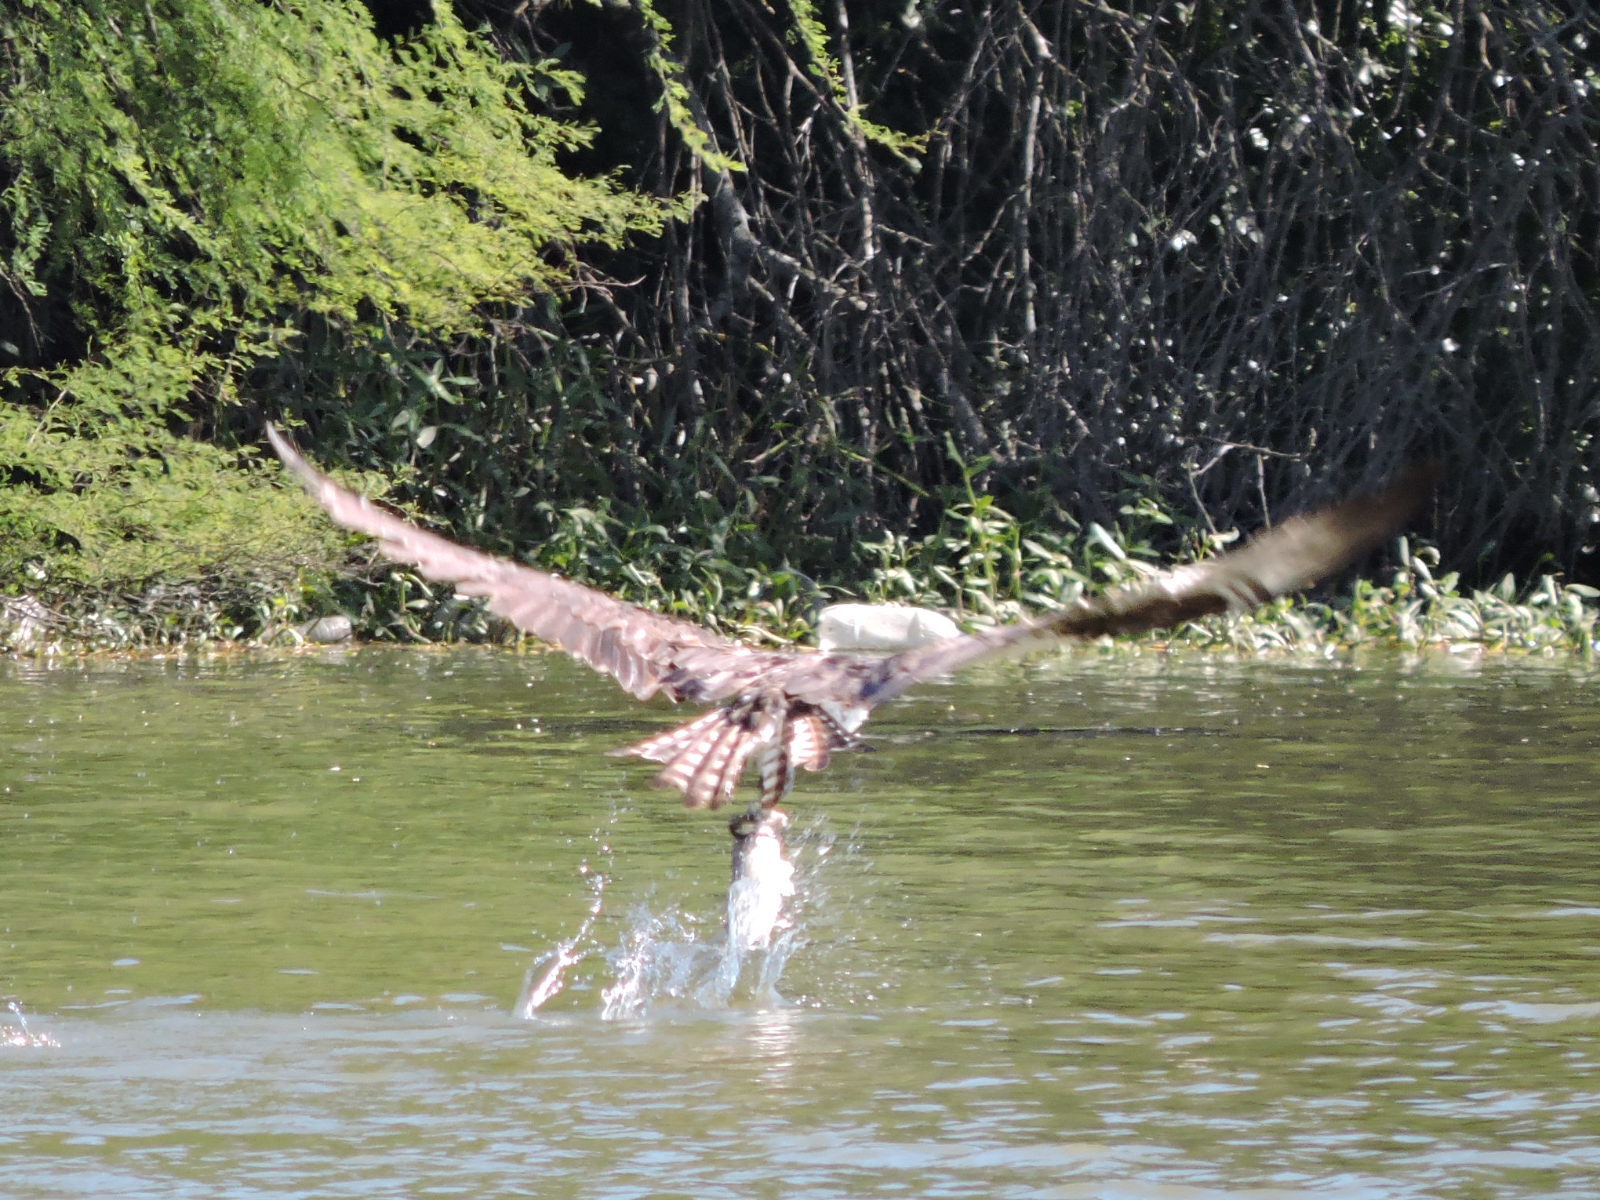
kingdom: Animalia
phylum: Chordata
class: Aves
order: Accipitriformes
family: Pandionidae
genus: Pandion
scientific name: Pandion haliaetus
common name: Osprey
